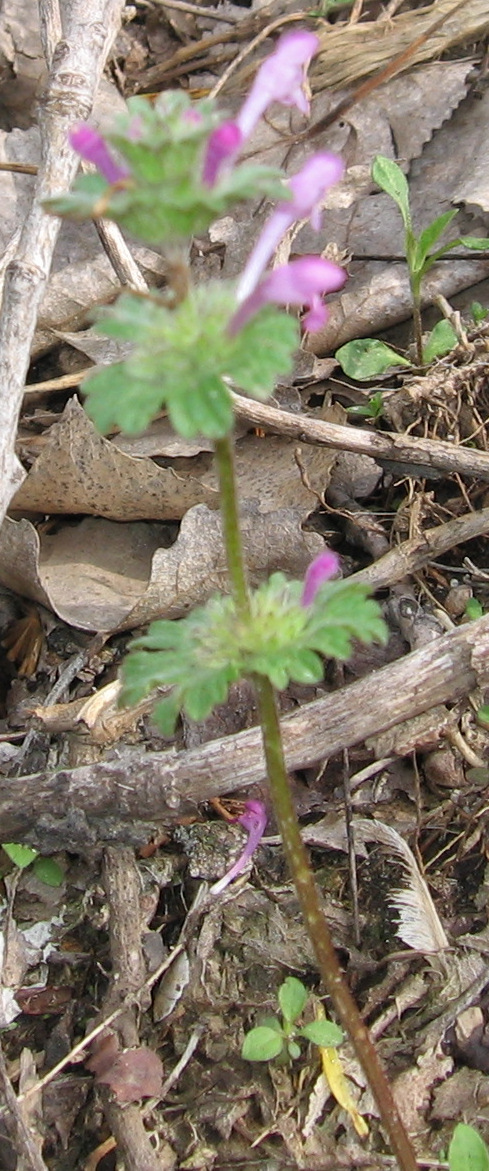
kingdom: Plantae
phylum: Tracheophyta
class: Magnoliopsida
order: Lamiales
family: Lamiaceae
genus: Lamium
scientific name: Lamium amplexicaule
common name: Henbit dead-nettle
